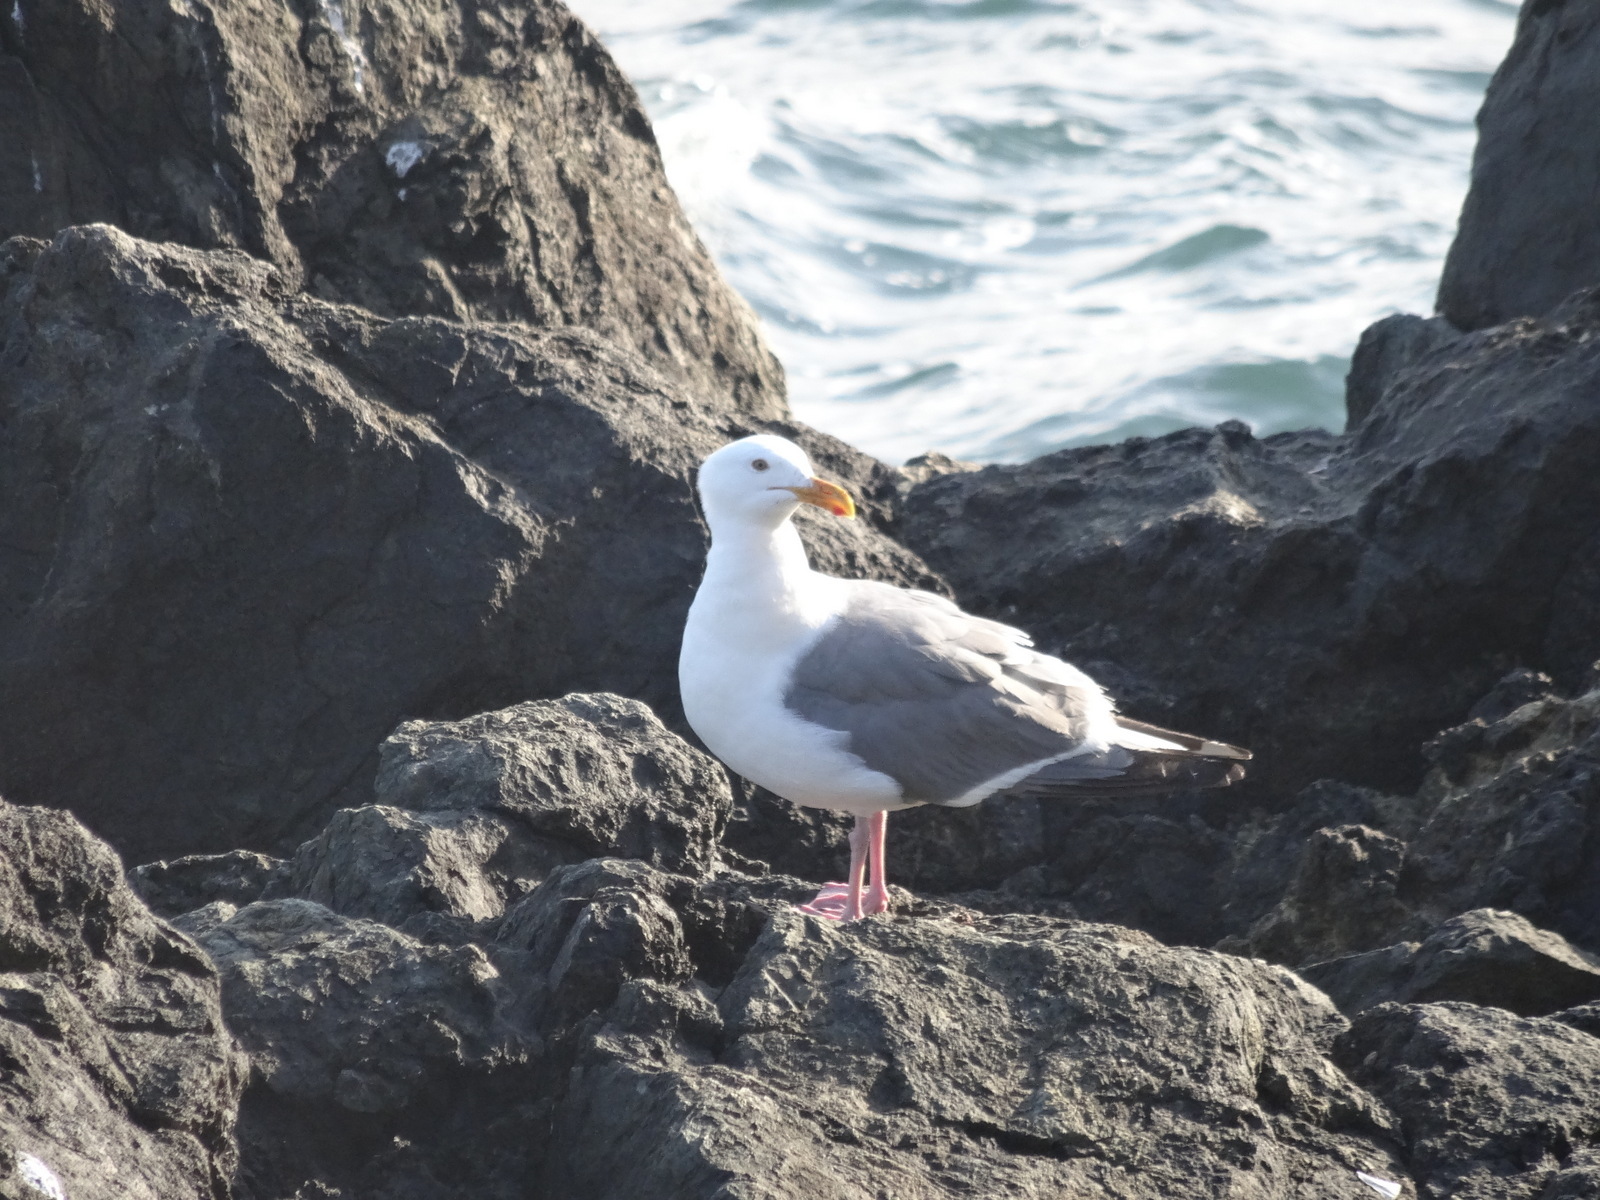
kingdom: Animalia
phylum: Chordata
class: Aves
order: Charadriiformes
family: Laridae
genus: Larus
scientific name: Larus occidentalis
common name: Western gull
